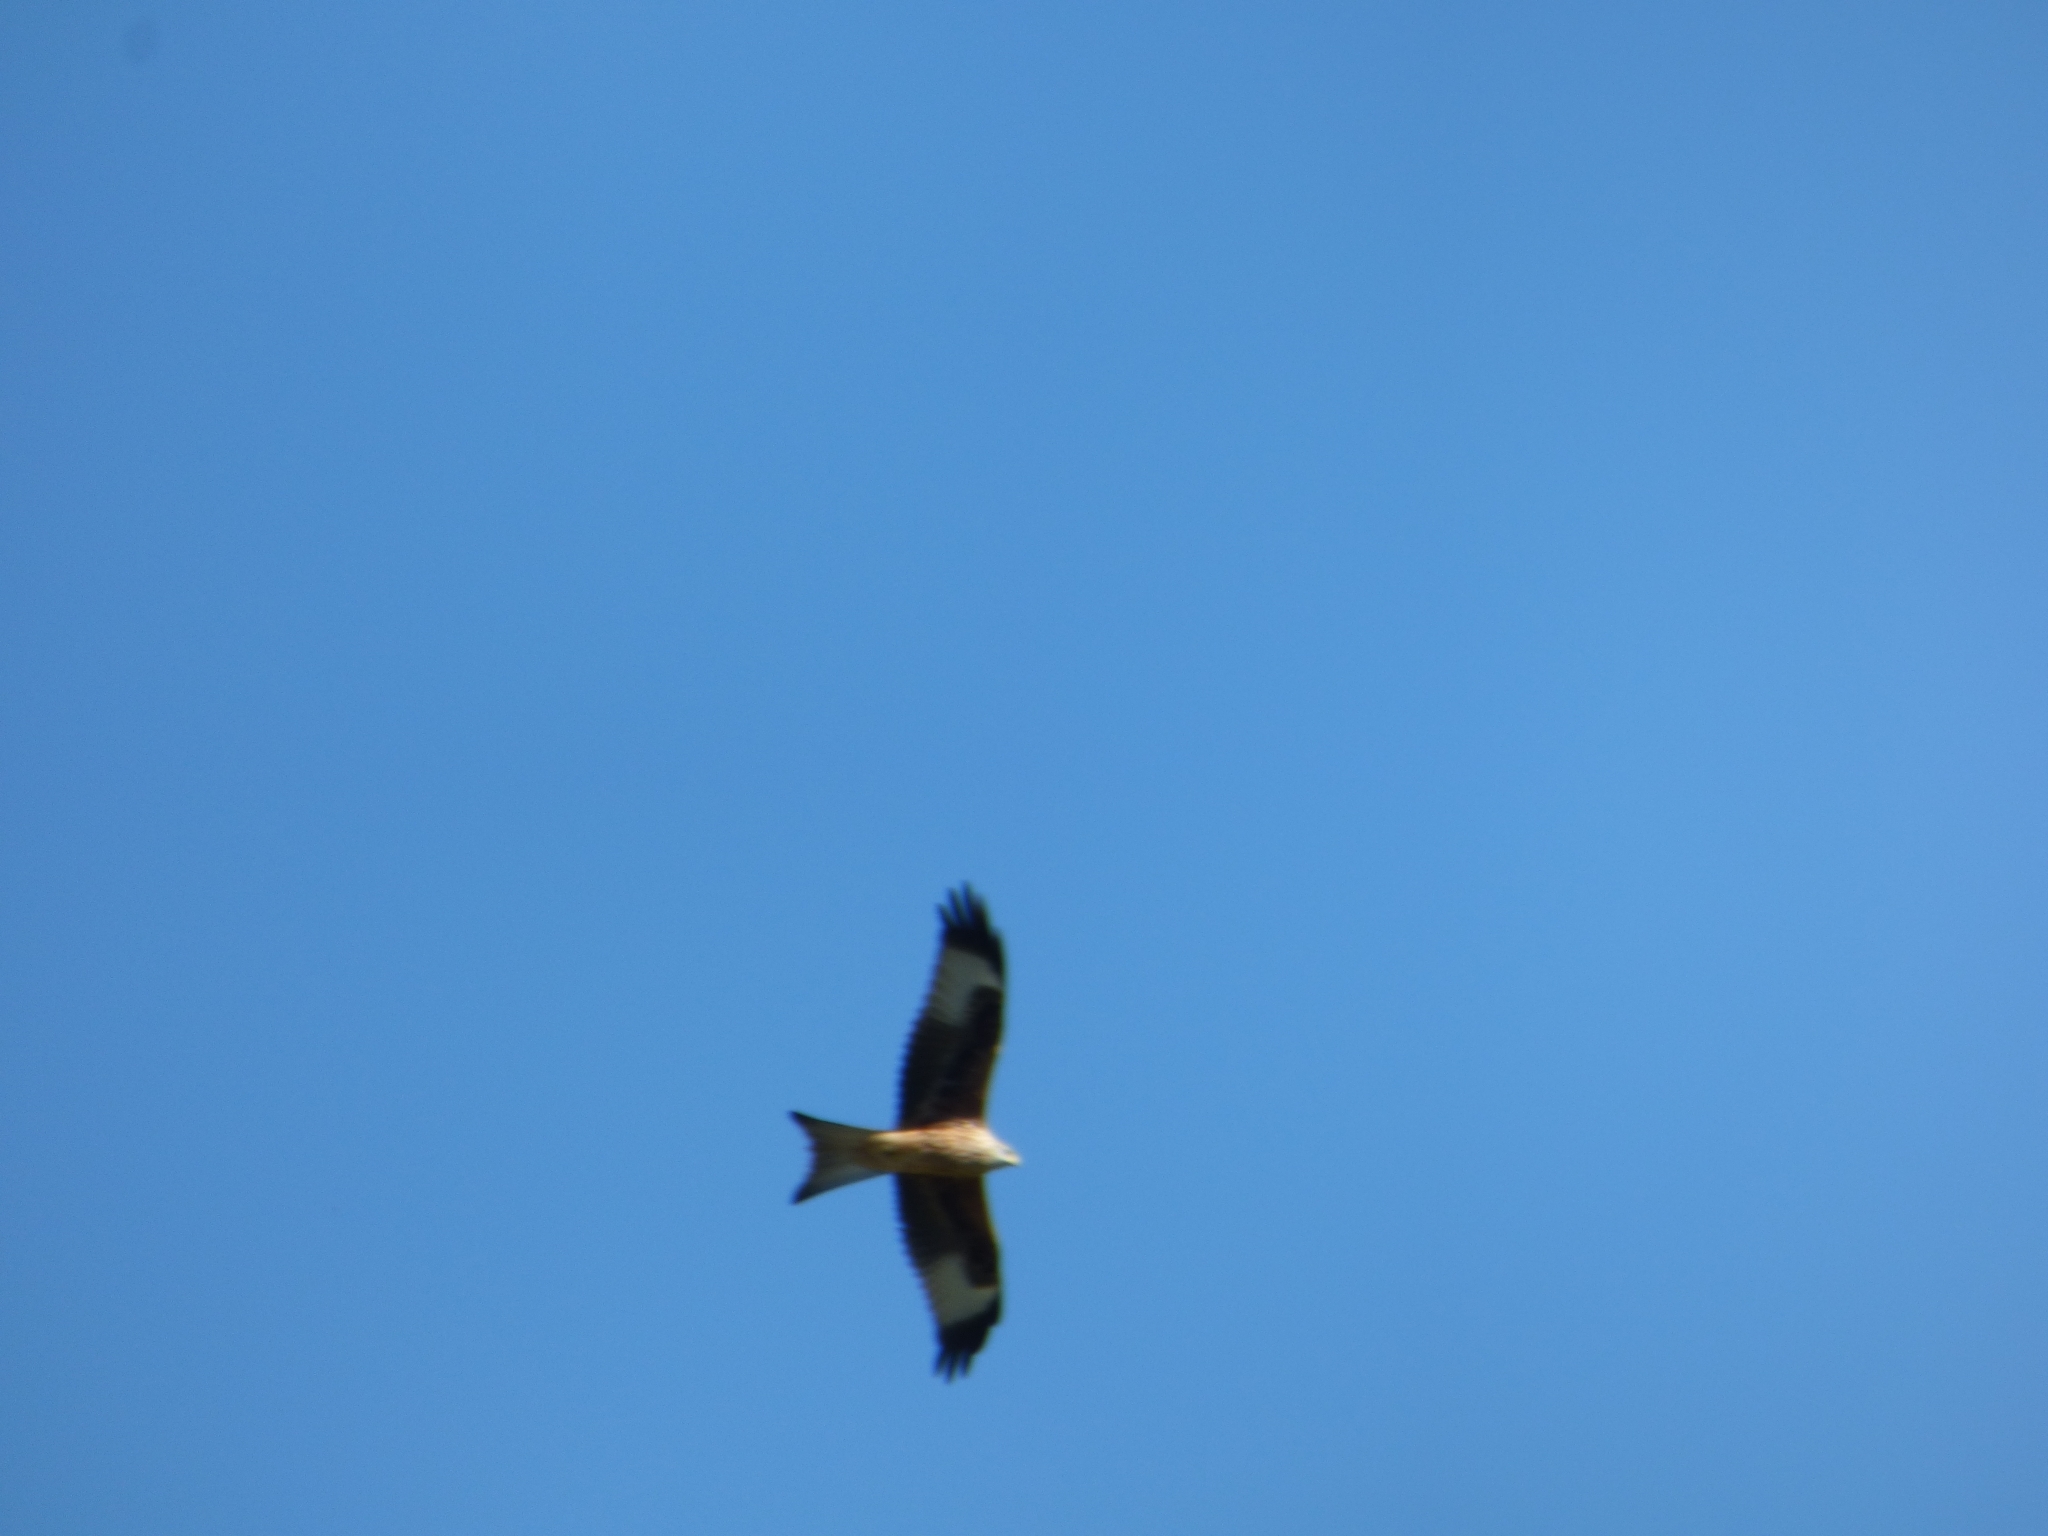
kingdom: Animalia
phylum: Chordata
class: Aves
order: Accipitriformes
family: Accipitridae
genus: Milvus
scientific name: Milvus milvus
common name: Red kite
